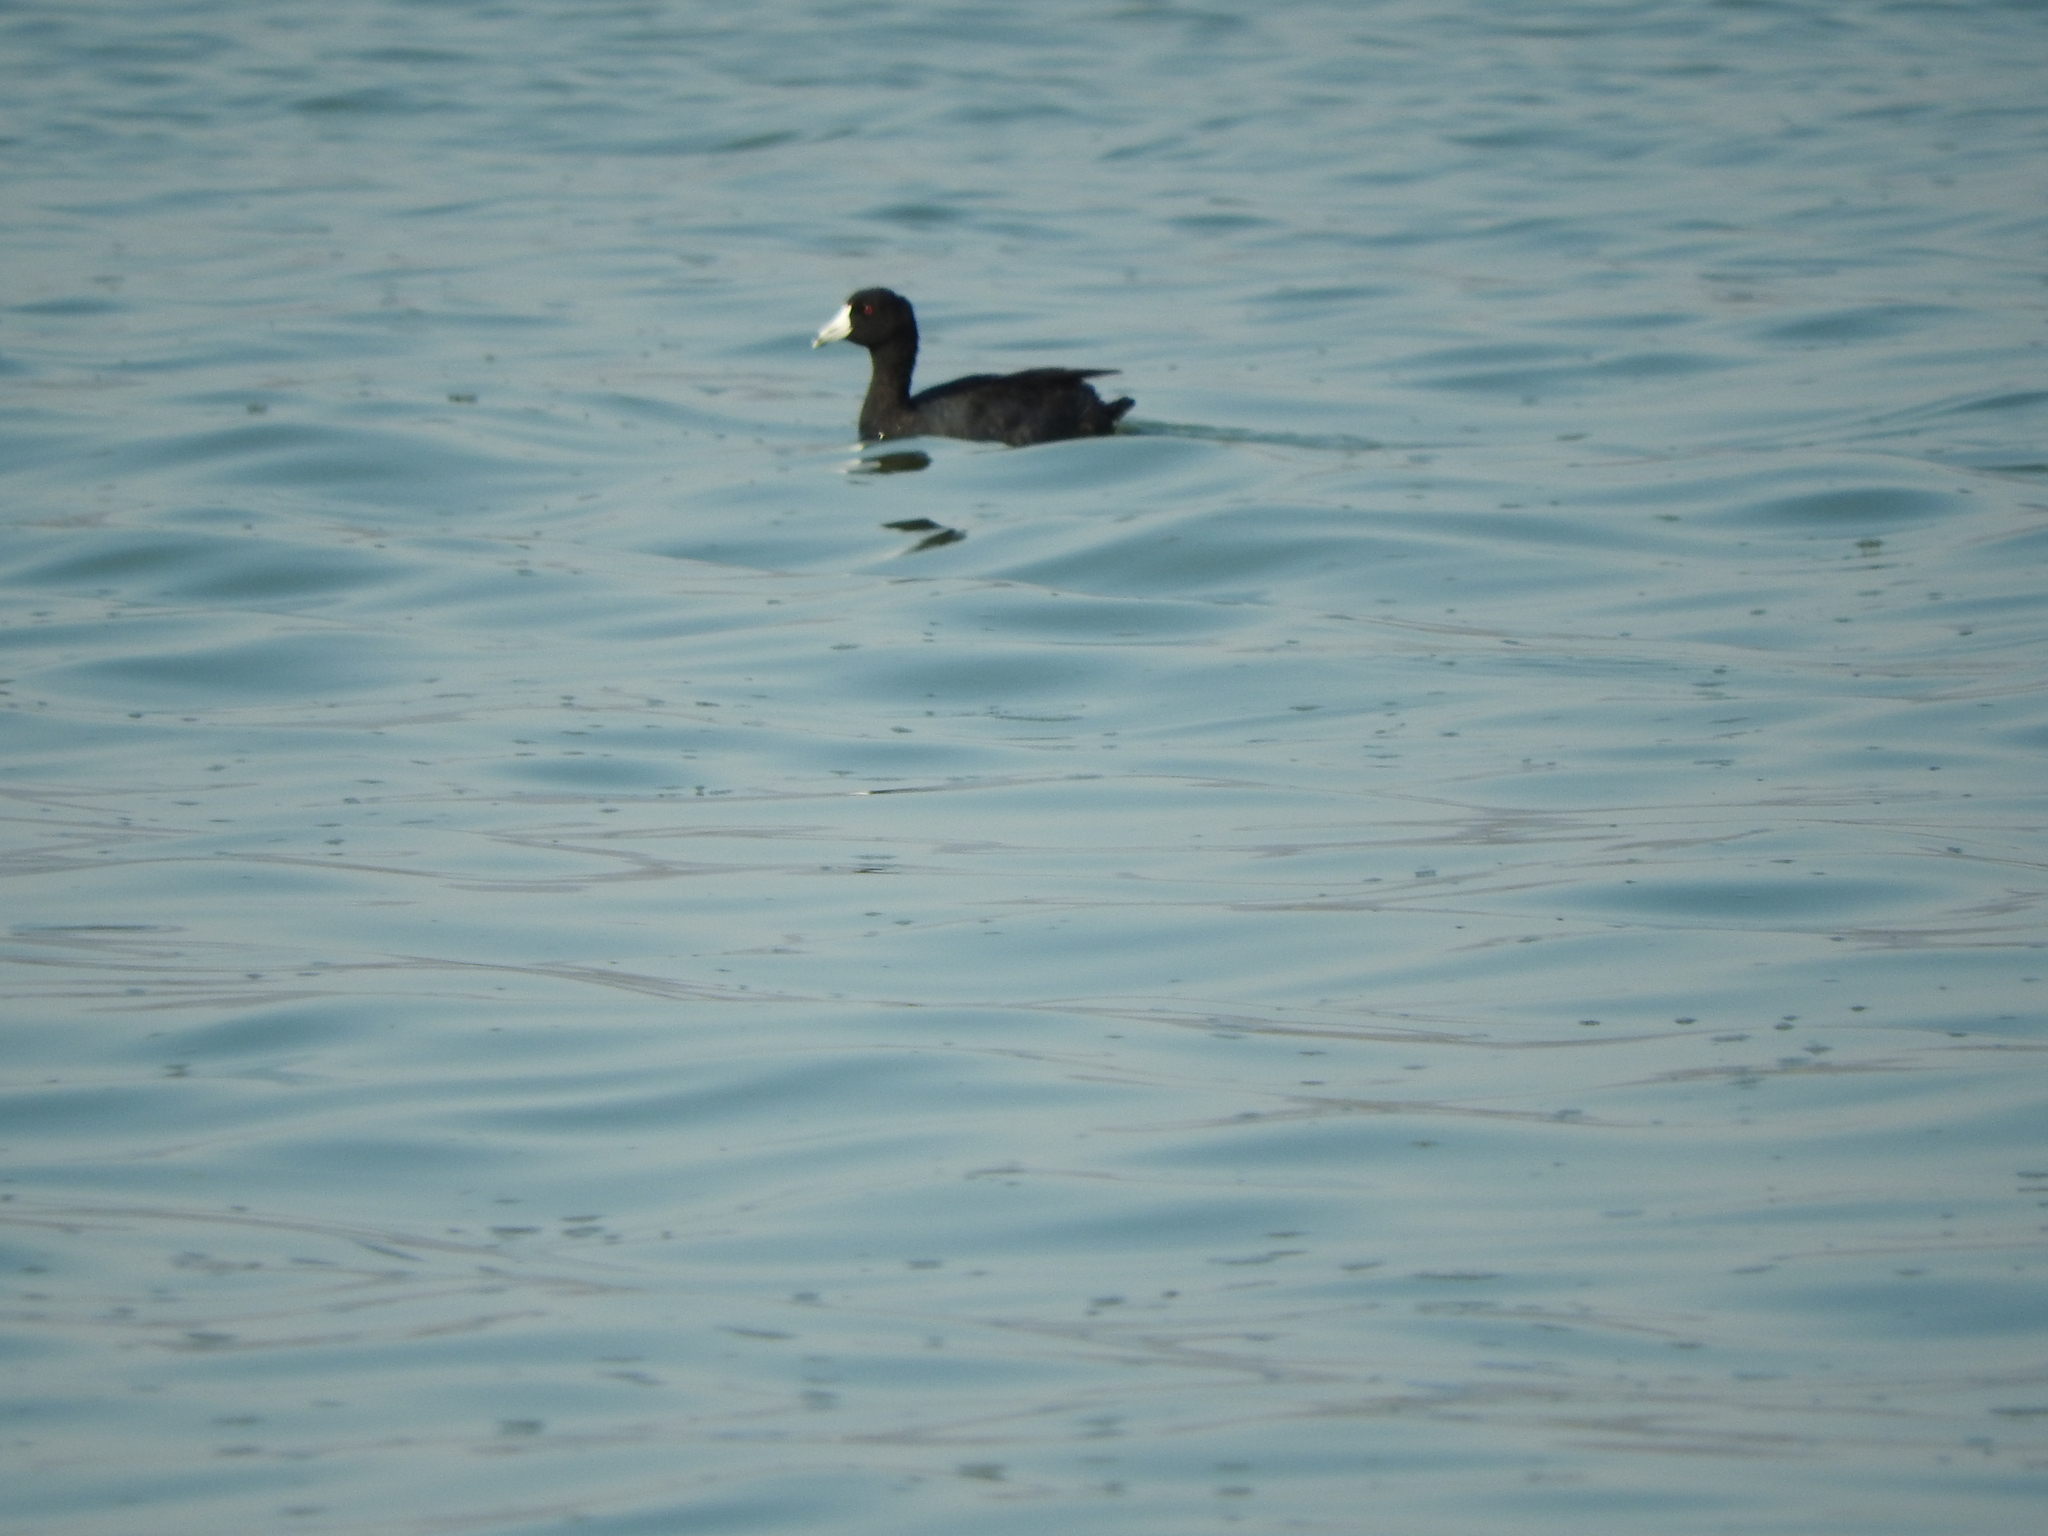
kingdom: Animalia
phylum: Chordata
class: Aves
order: Gruiformes
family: Rallidae
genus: Fulica
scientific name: Fulica americana
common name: American coot
